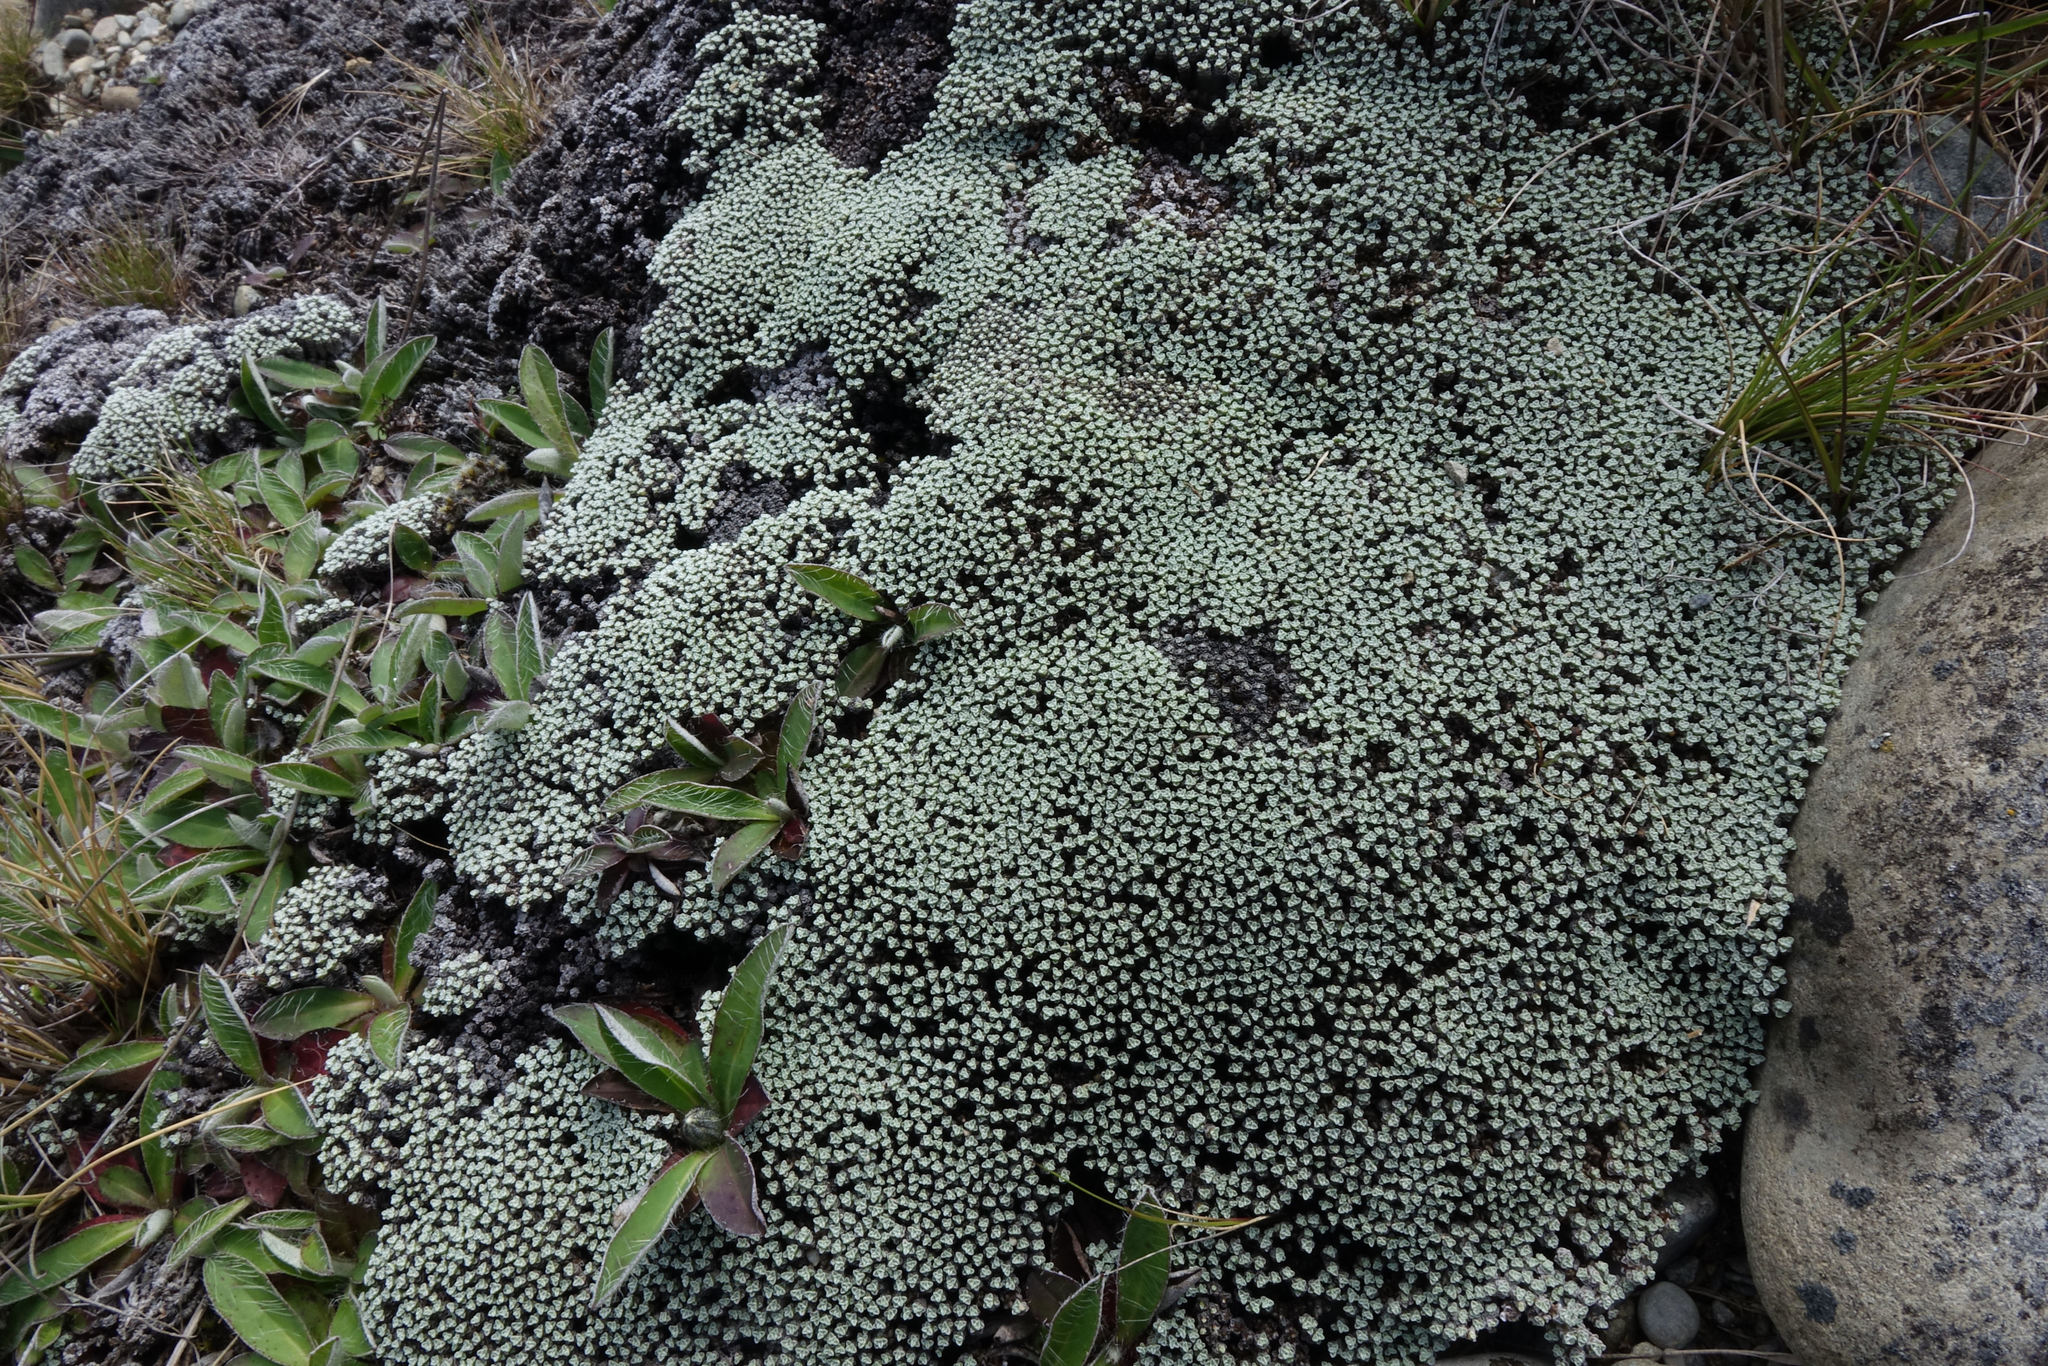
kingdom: Plantae
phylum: Tracheophyta
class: Magnoliopsida
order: Asterales
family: Asteraceae
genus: Raoulia
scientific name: Raoulia australis
